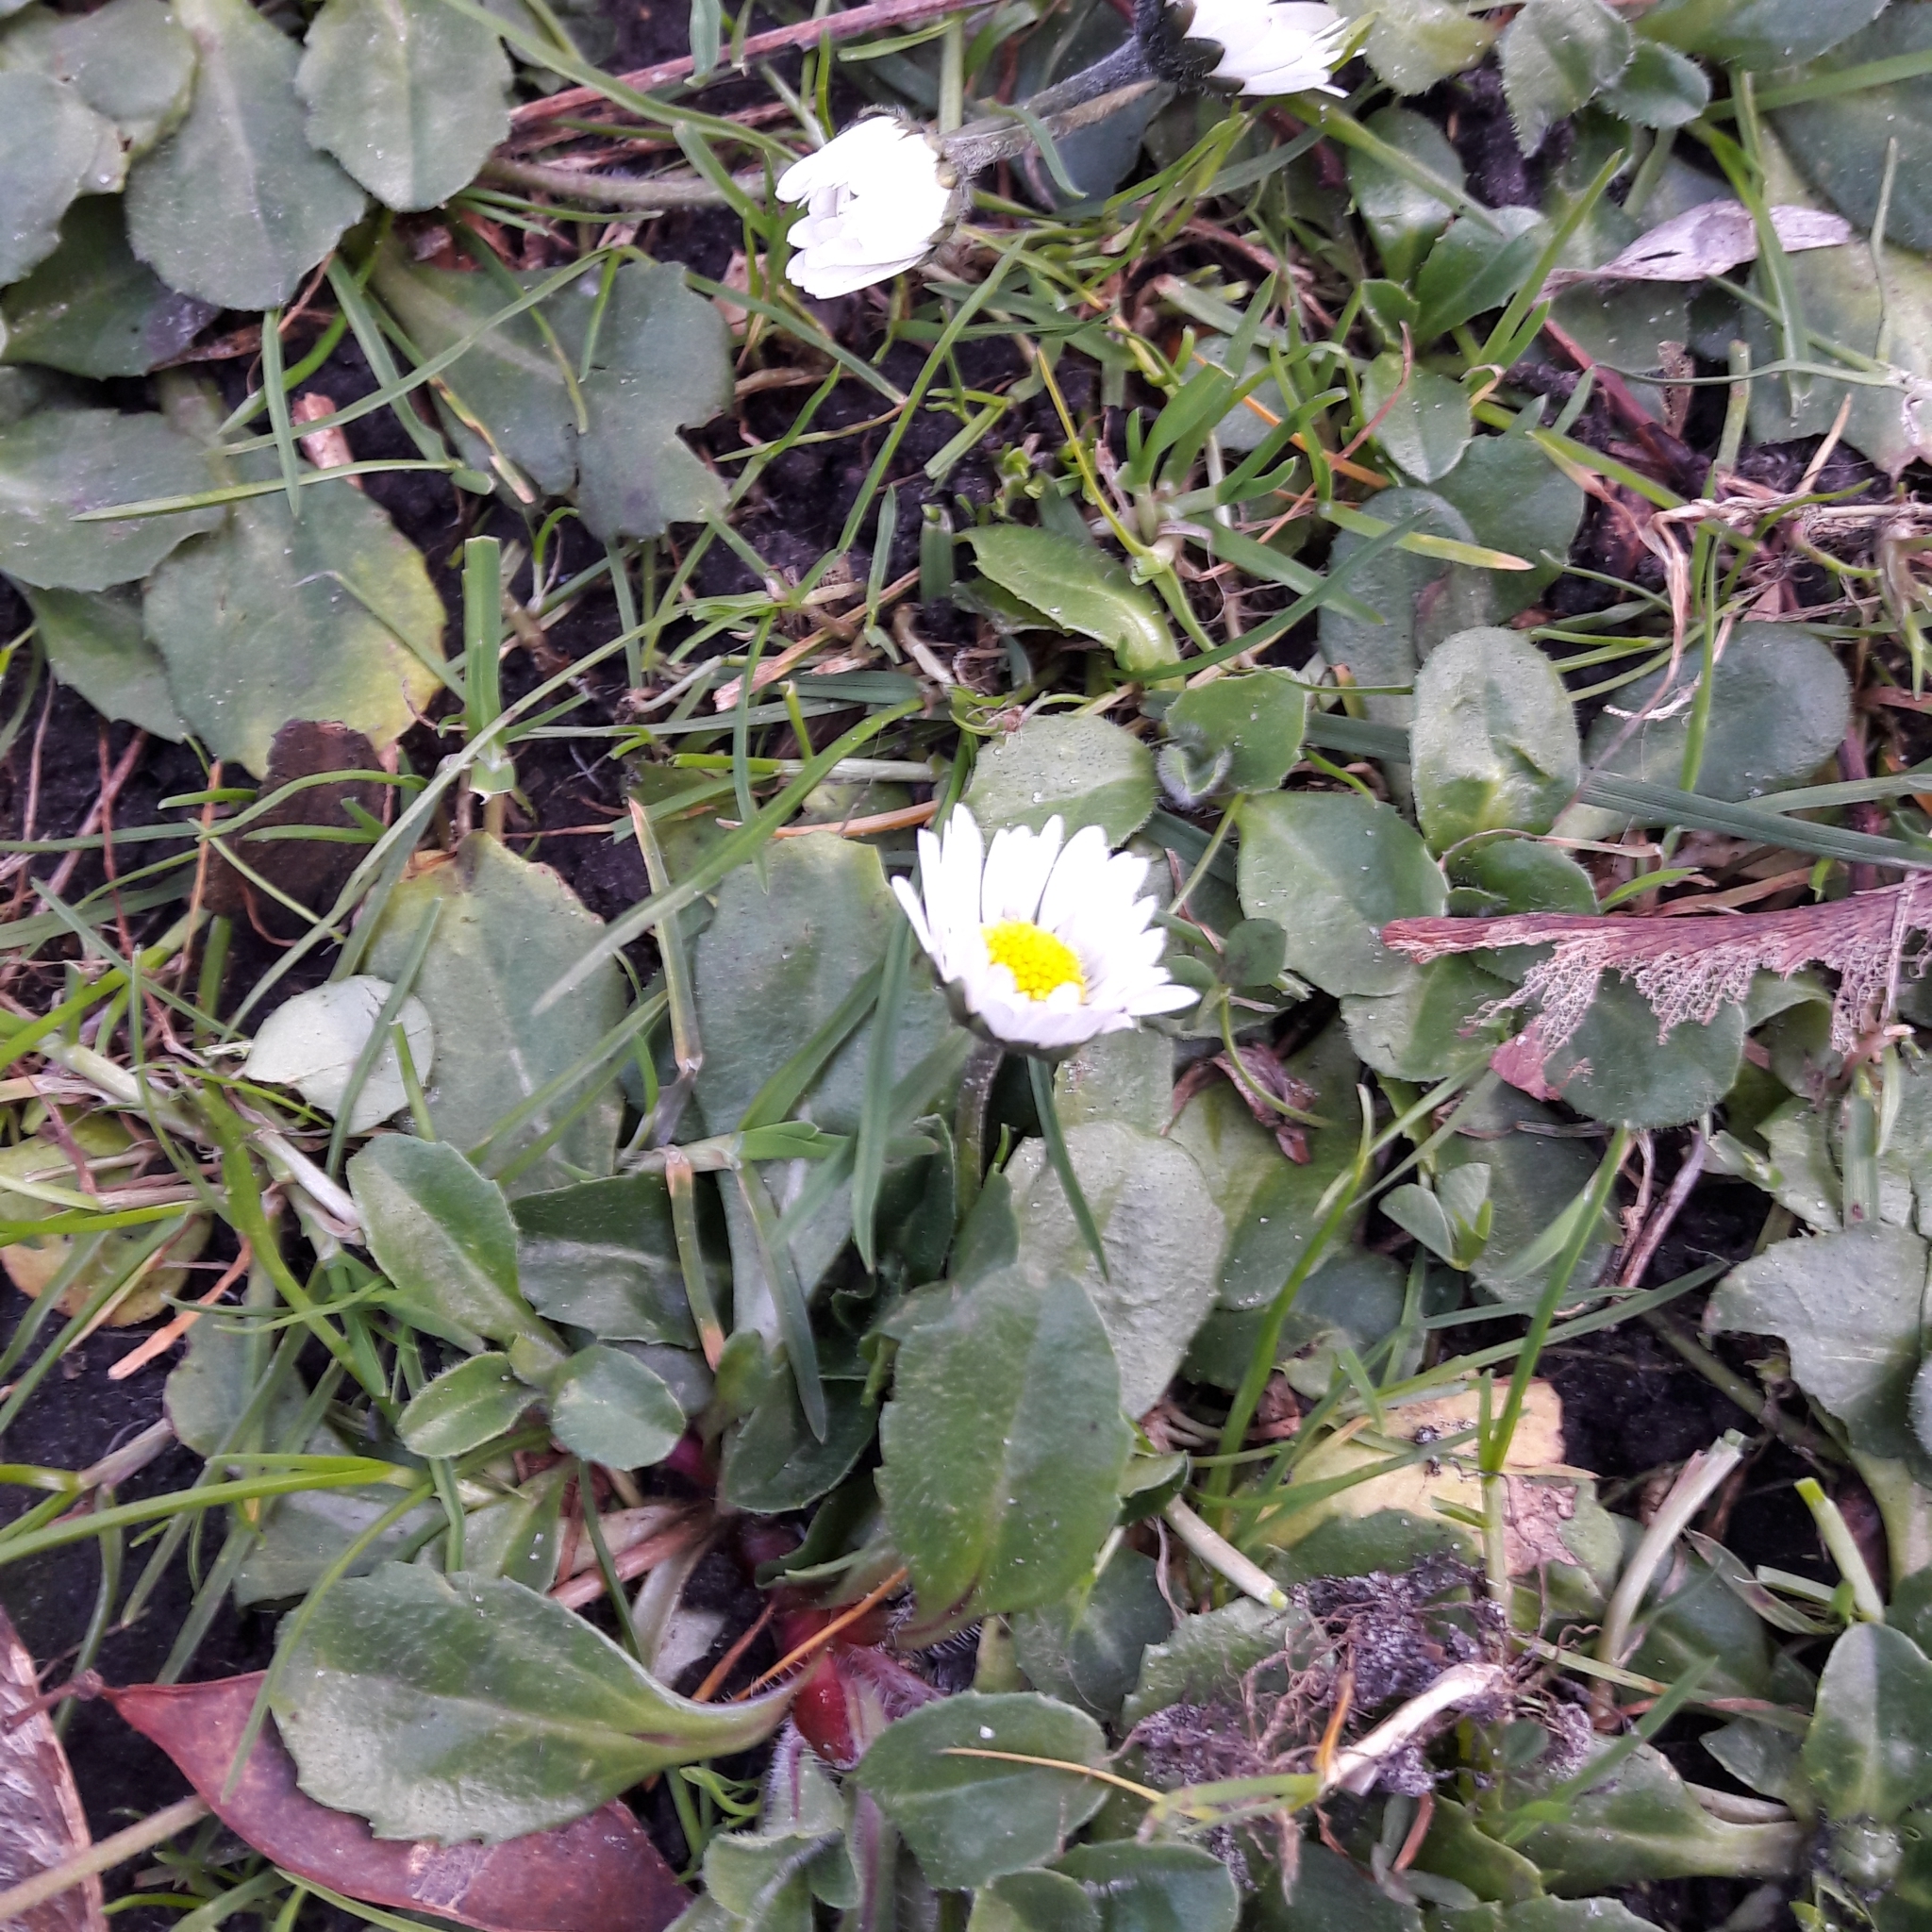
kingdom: Plantae
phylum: Tracheophyta
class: Magnoliopsida
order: Asterales
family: Asteraceae
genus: Bellis
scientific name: Bellis perennis
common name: Lawndaisy
